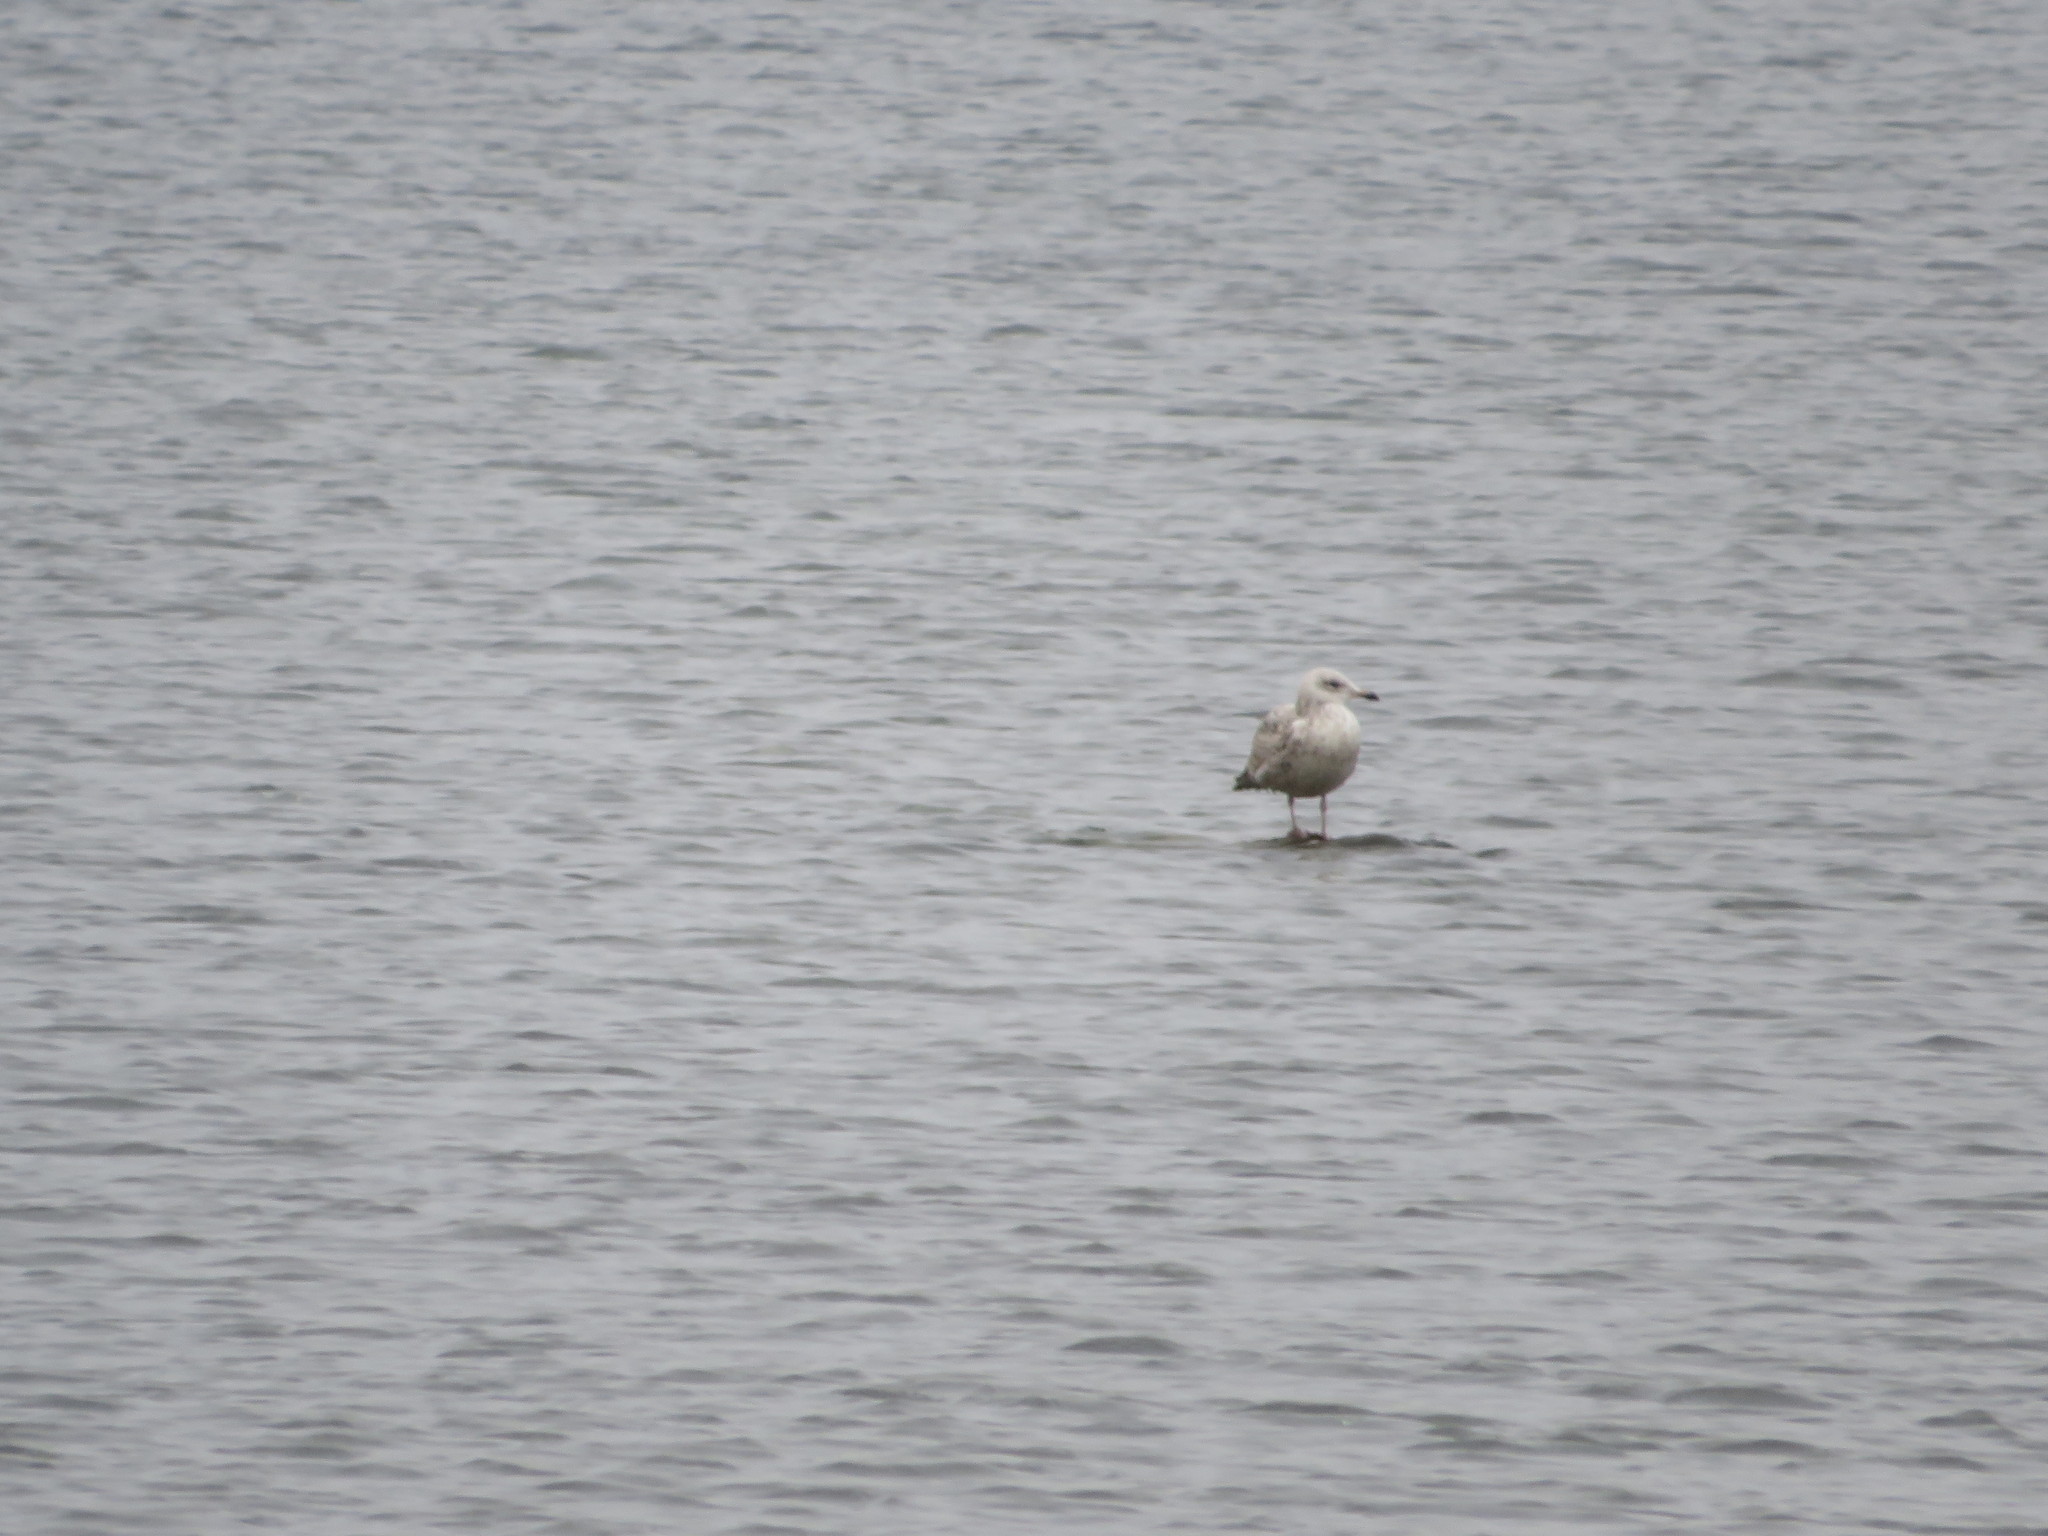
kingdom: Animalia
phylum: Chordata
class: Aves
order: Charadriiformes
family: Laridae
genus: Larus
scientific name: Larus argentatus
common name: Herring gull
